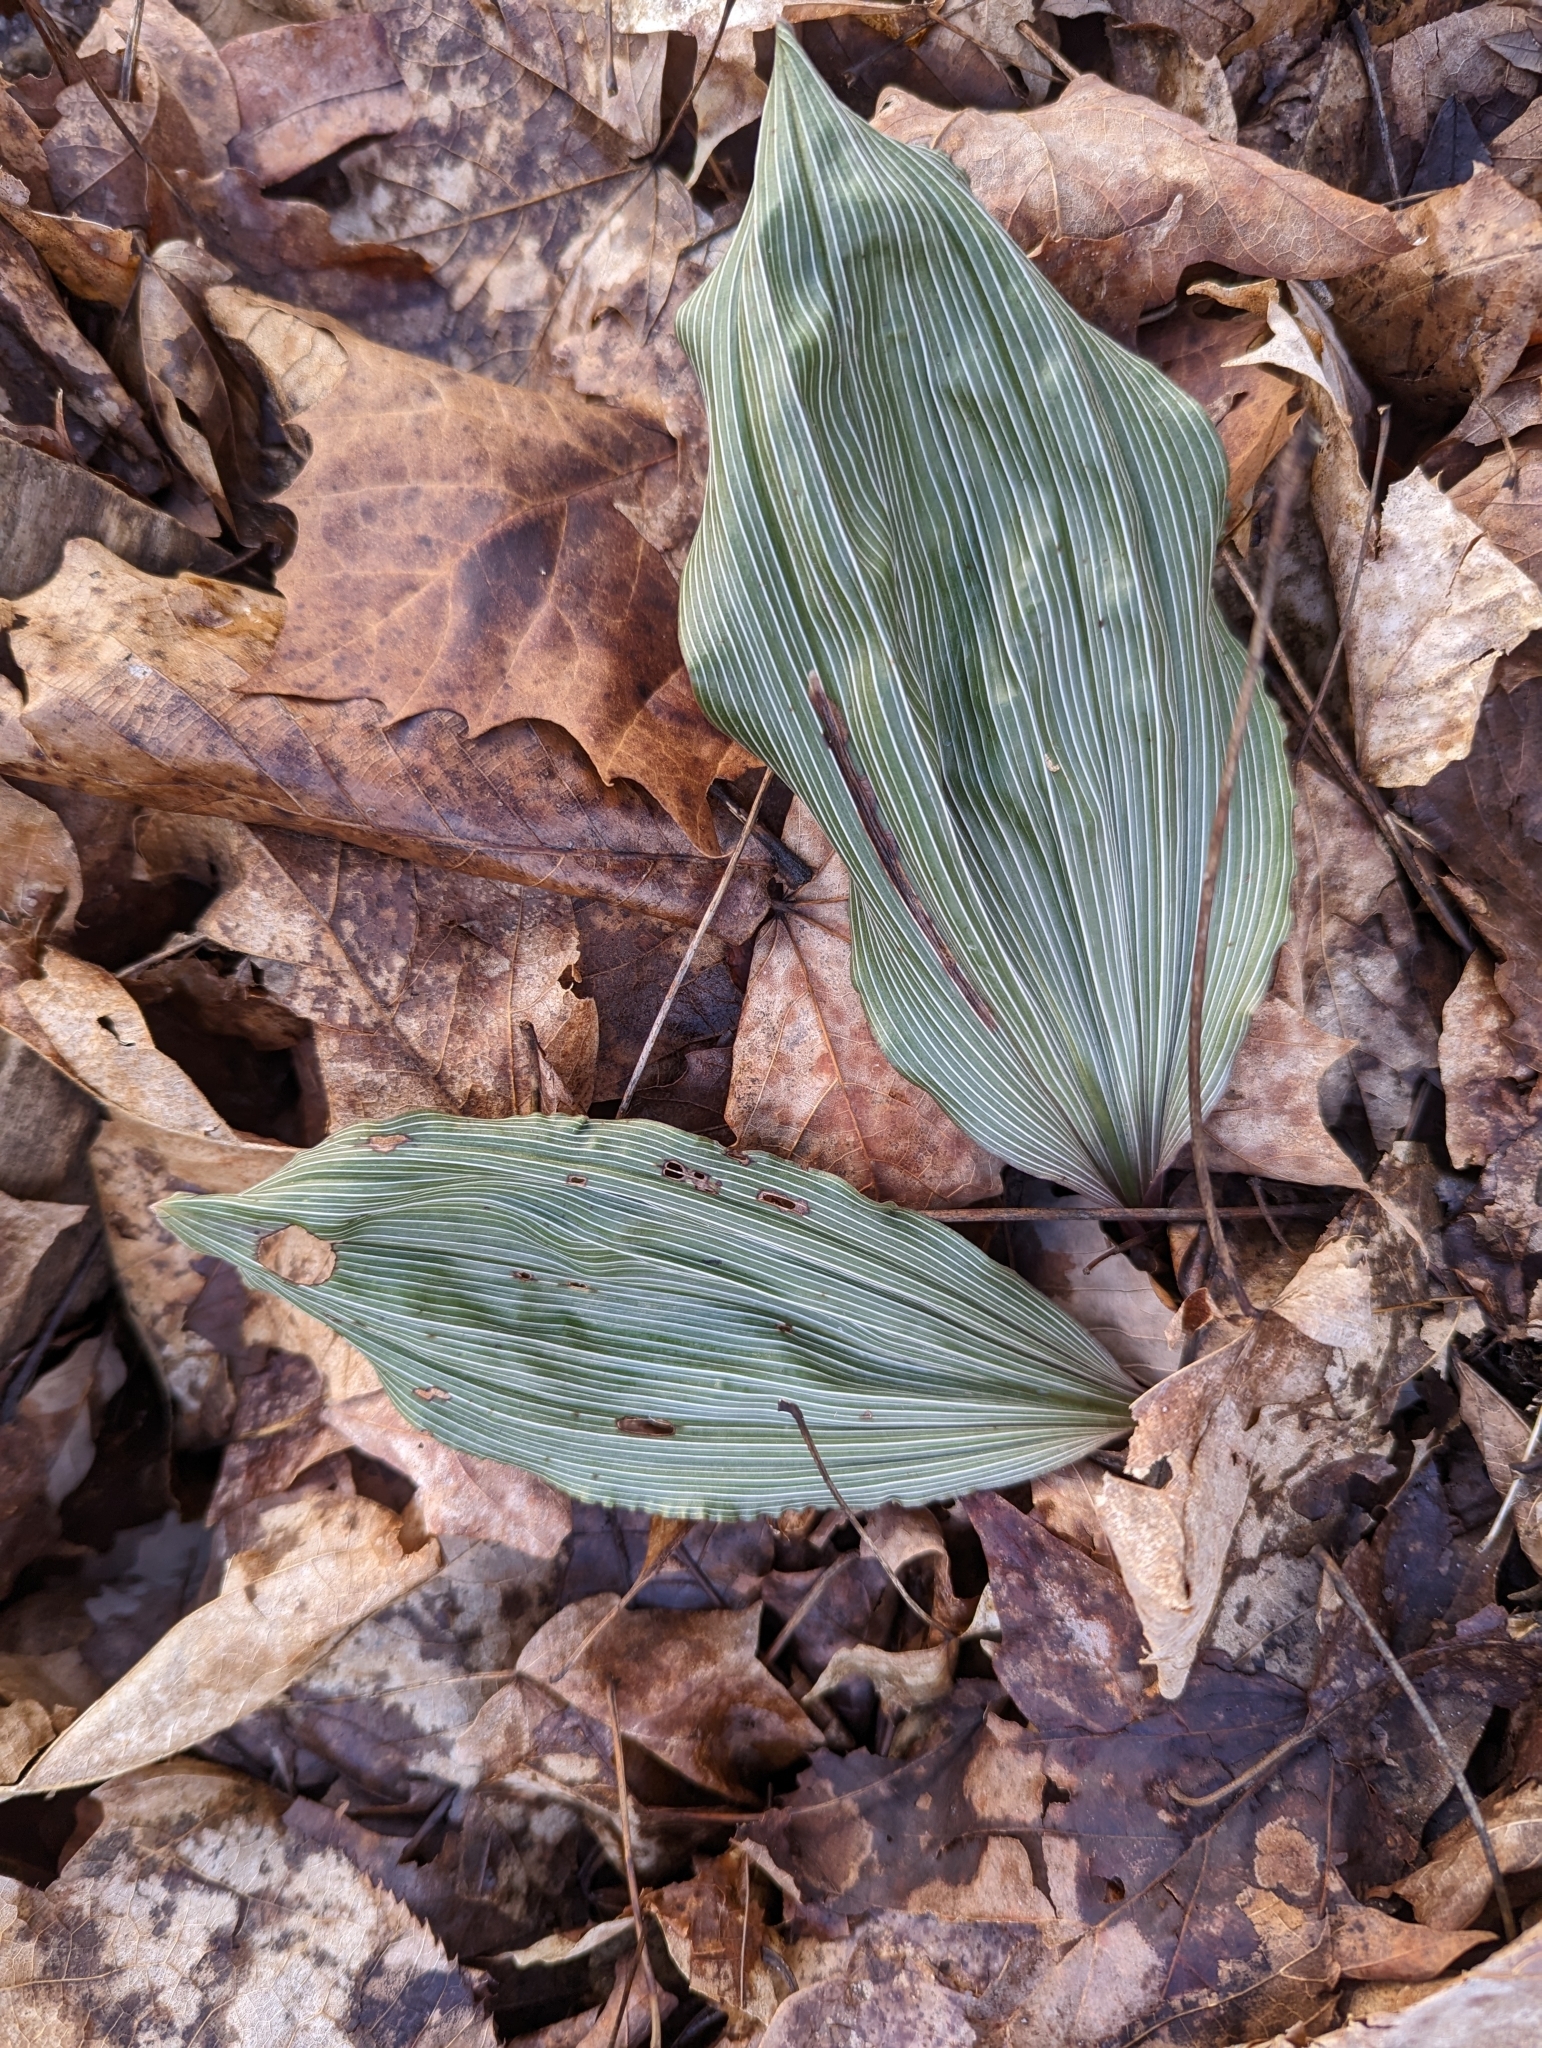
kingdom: Plantae
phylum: Tracheophyta
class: Liliopsida
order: Asparagales
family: Orchidaceae
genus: Aplectrum
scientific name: Aplectrum hyemale
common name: Adam-and-eve
